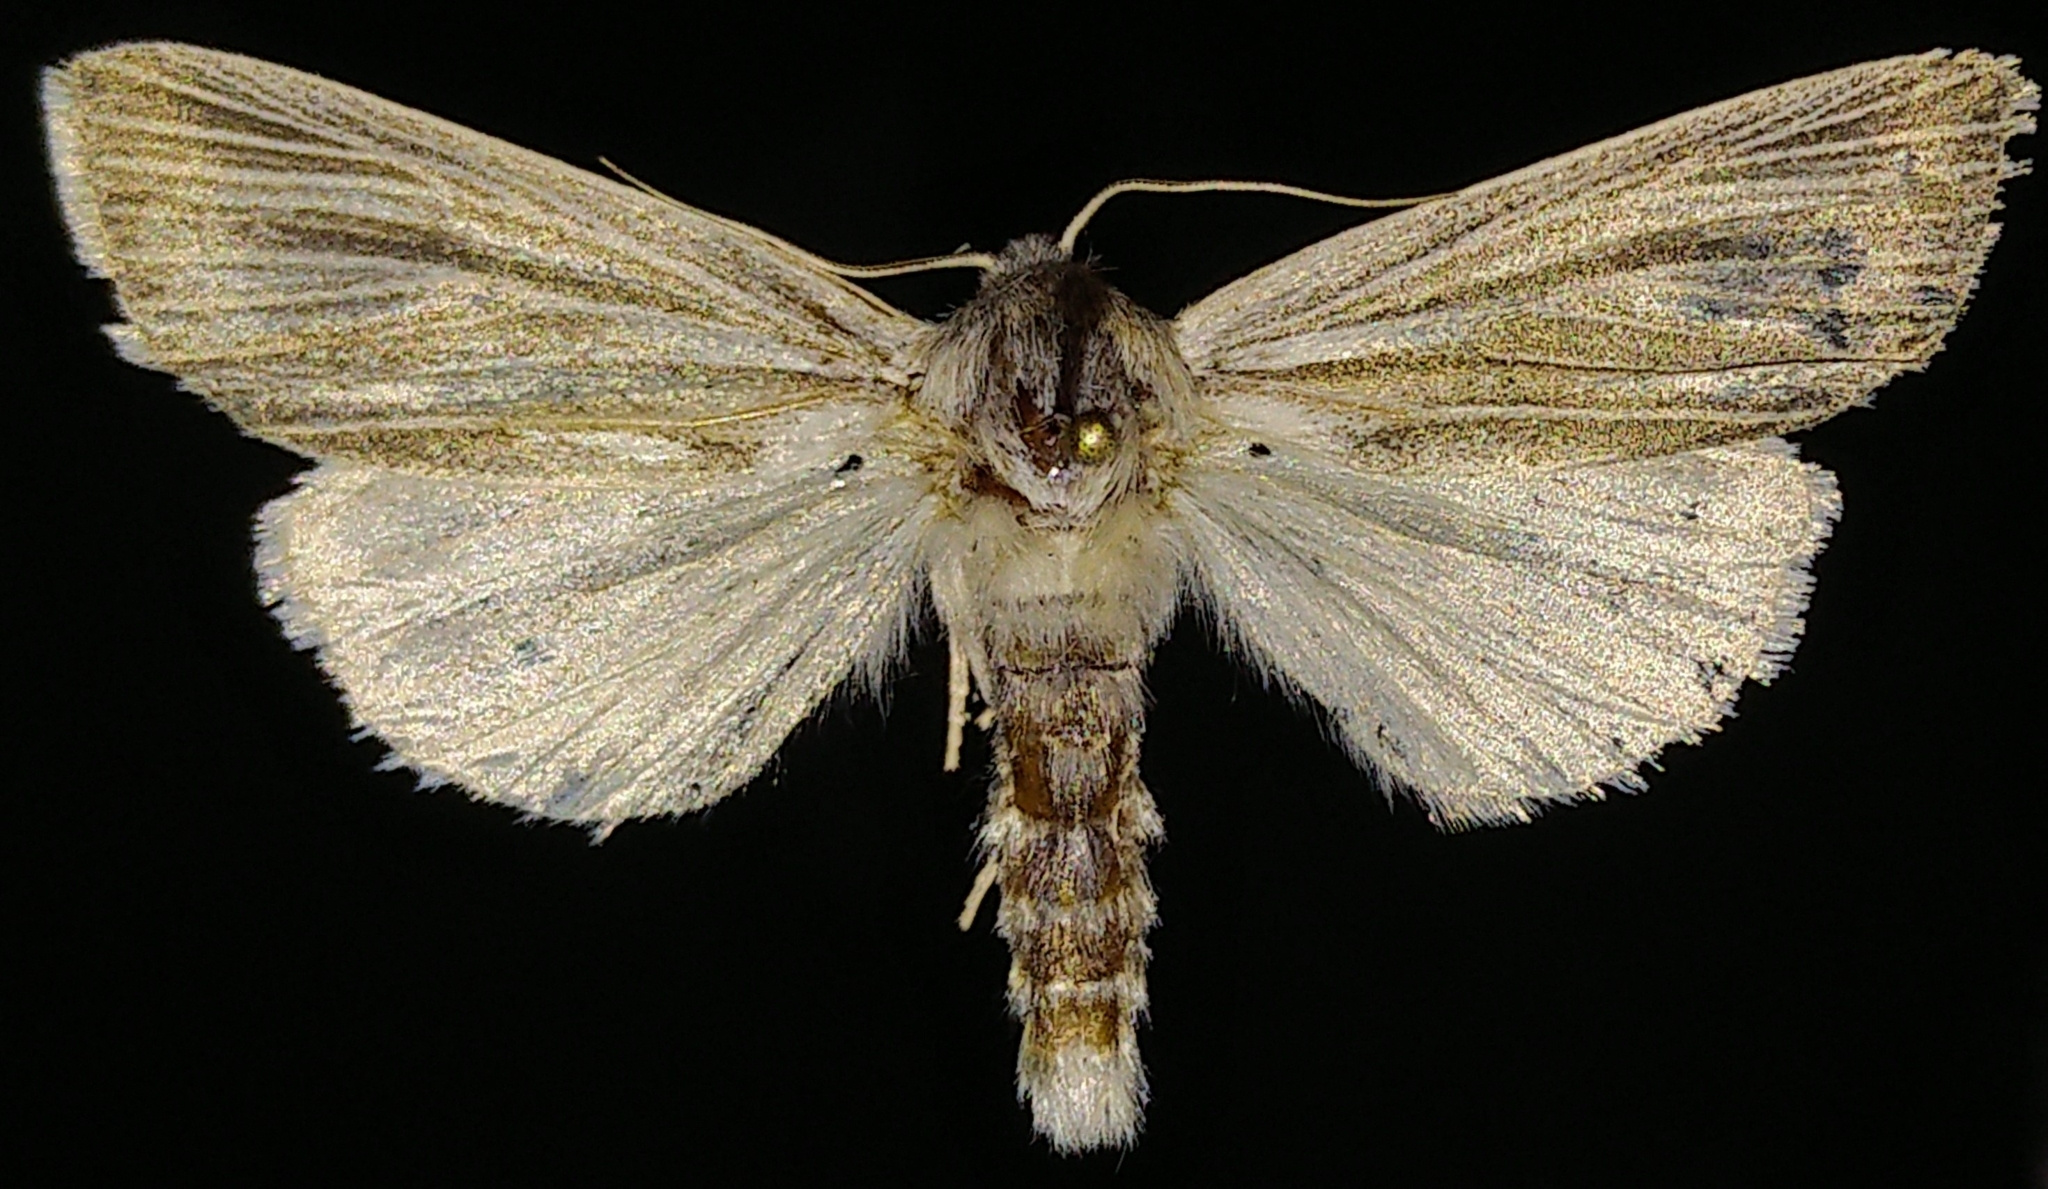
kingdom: Animalia
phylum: Arthropoda
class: Insecta
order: Lepidoptera
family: Noctuidae
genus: Acronicta
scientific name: Acronicta insularis
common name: Henry's marsh moth
